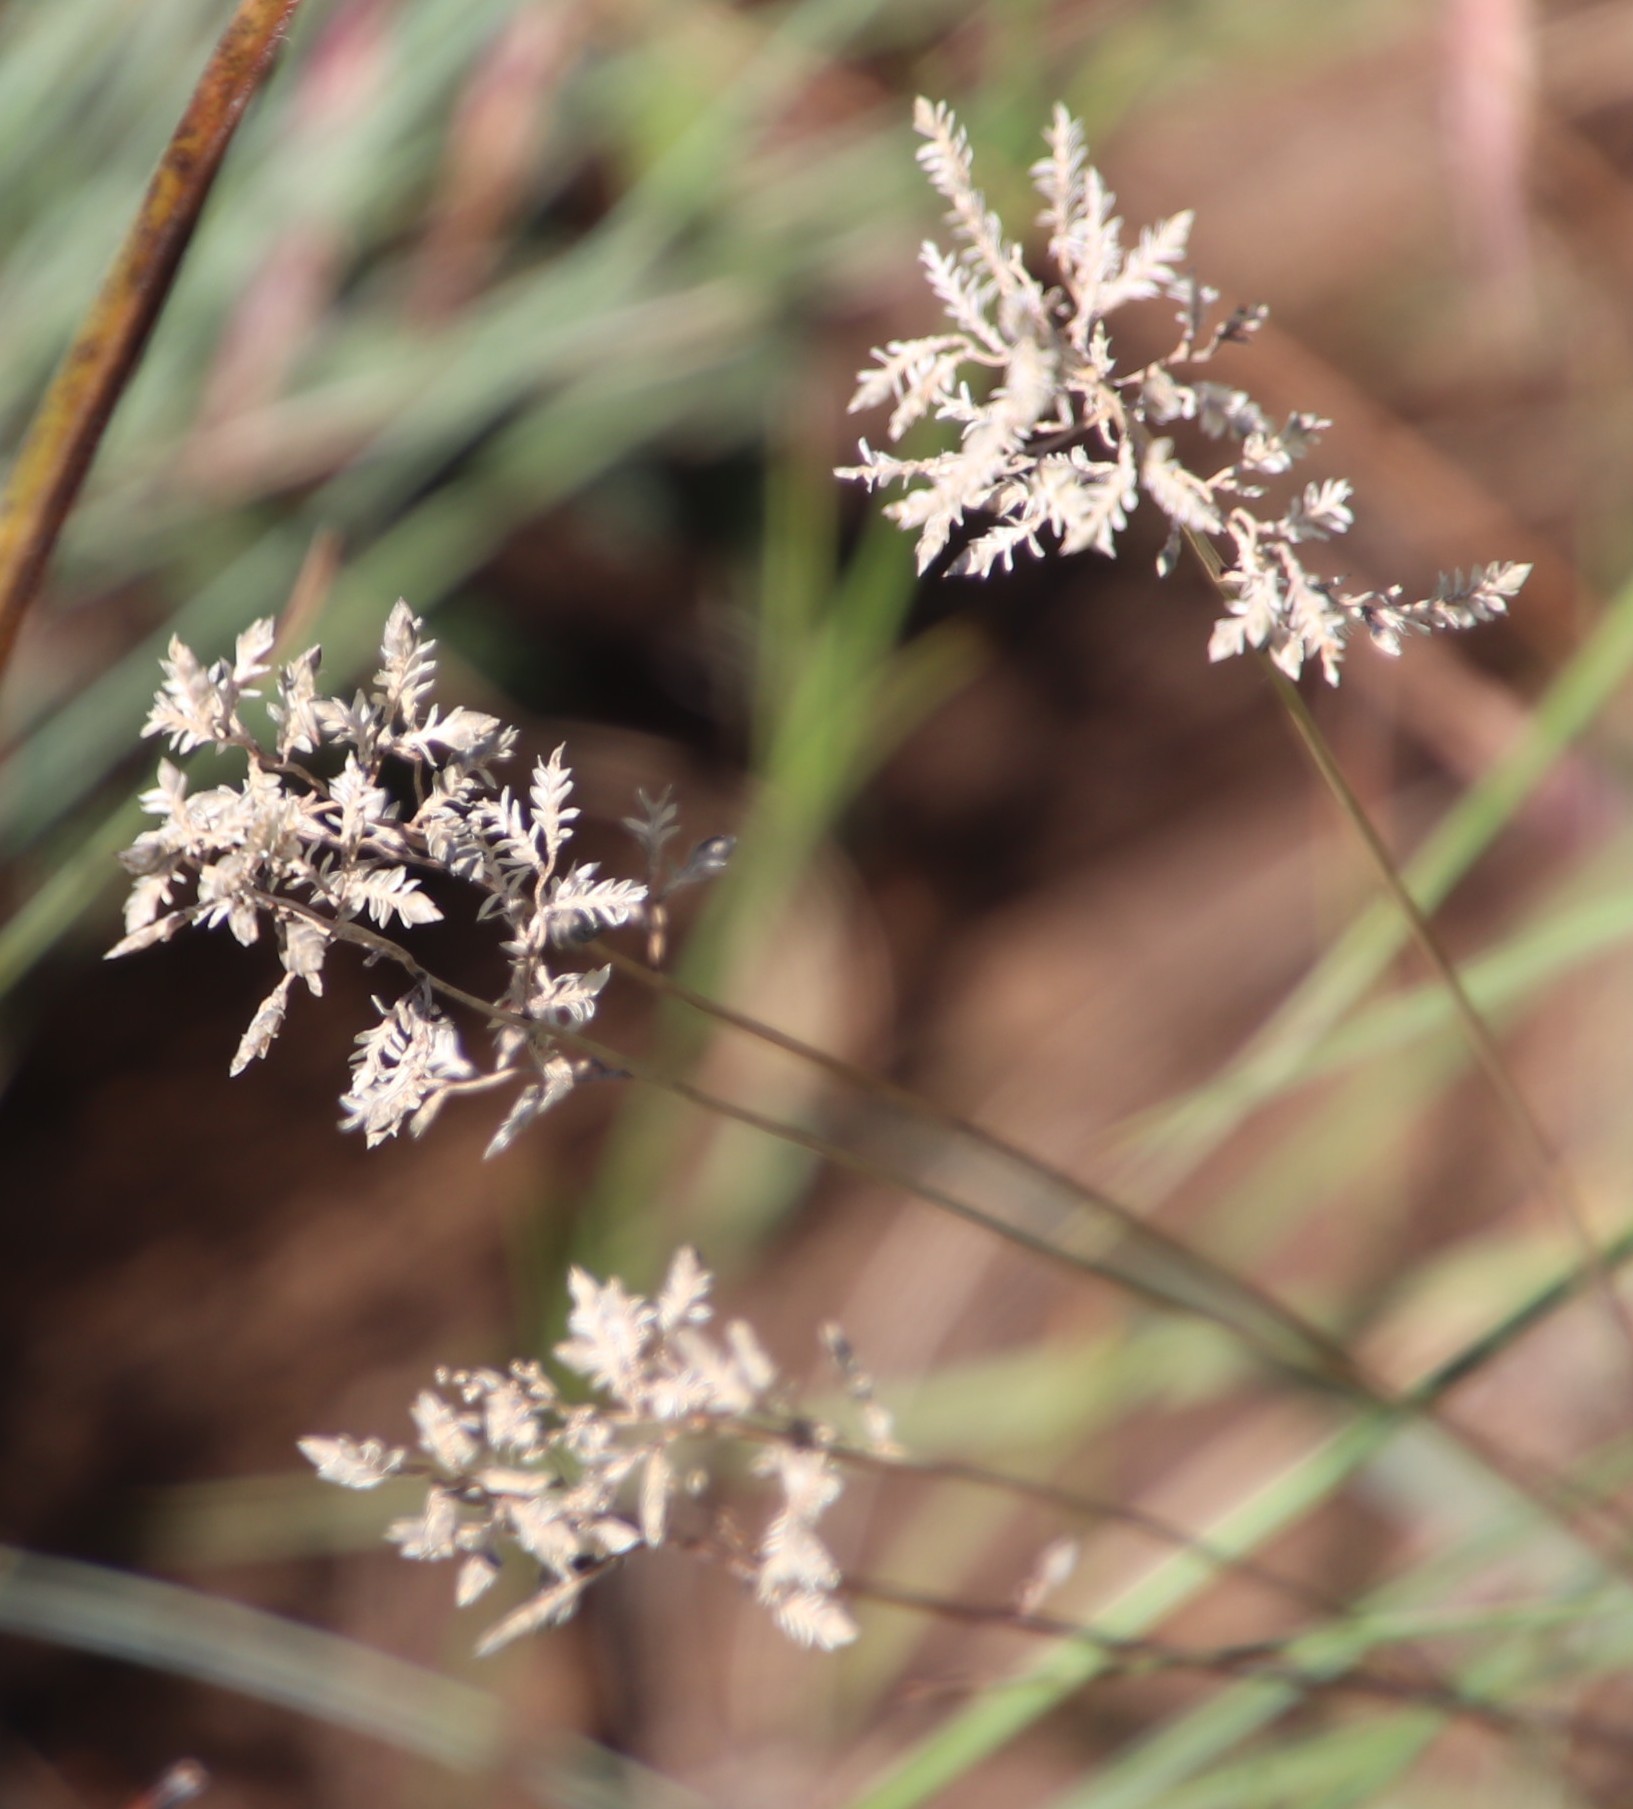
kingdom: Plantae
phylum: Tracheophyta
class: Liliopsida
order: Poales
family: Poaceae
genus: Eragrostis
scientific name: Eragrostis racemosa
